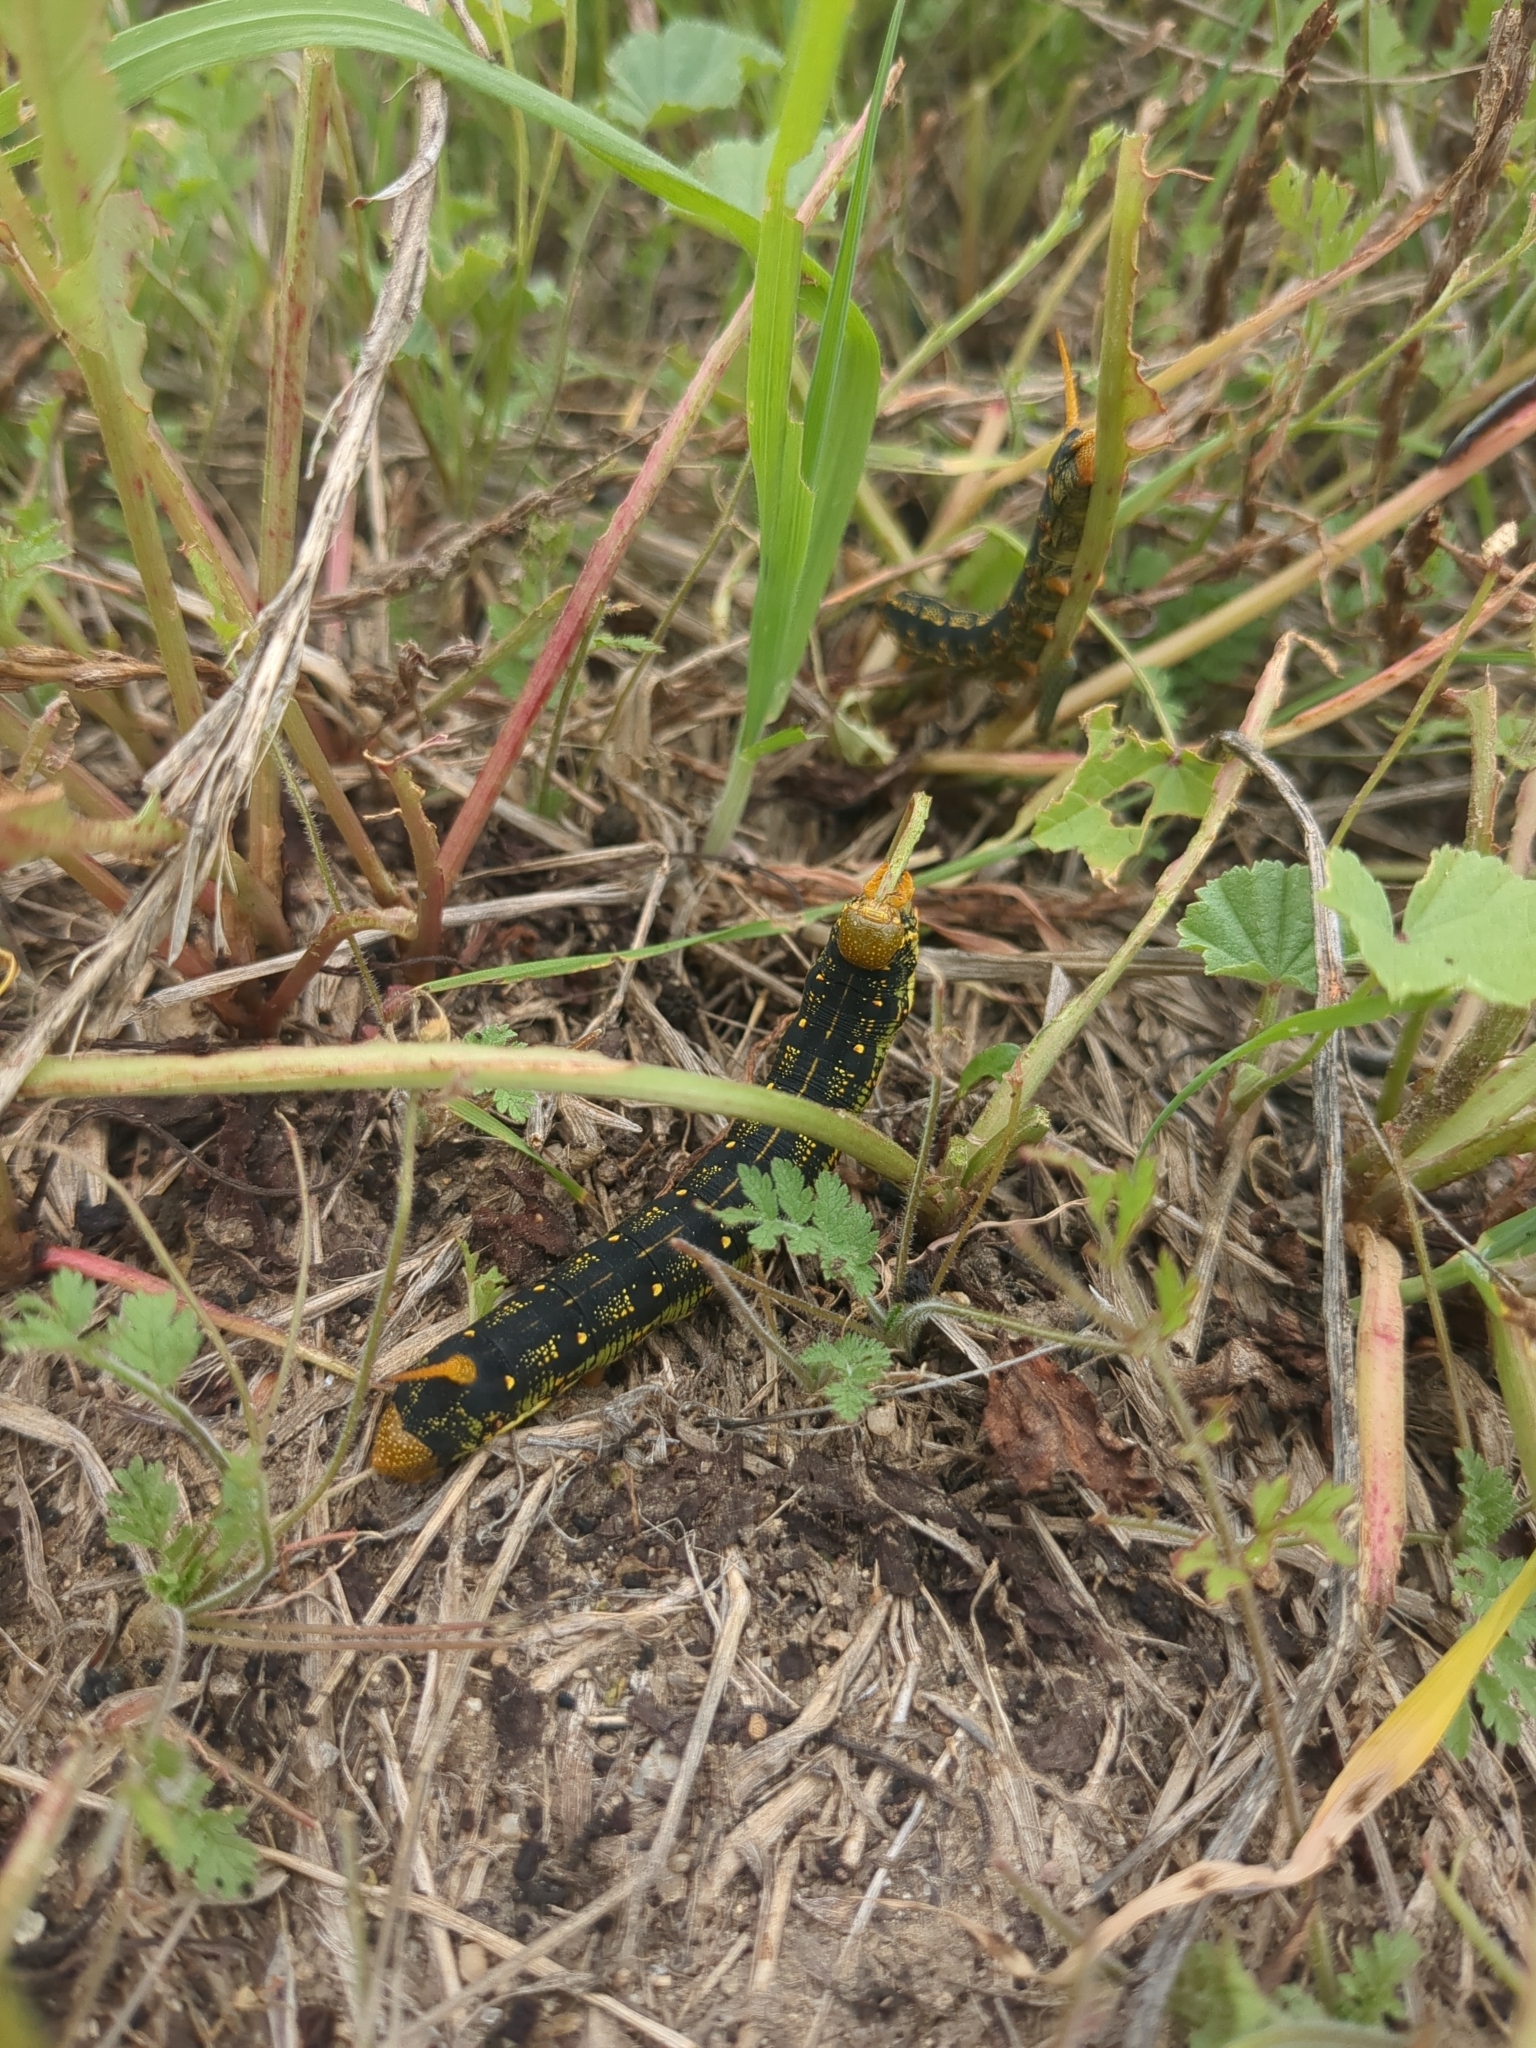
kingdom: Animalia
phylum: Arthropoda
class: Insecta
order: Lepidoptera
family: Sphingidae
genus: Hyles
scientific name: Hyles lineata
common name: White-lined sphinx
